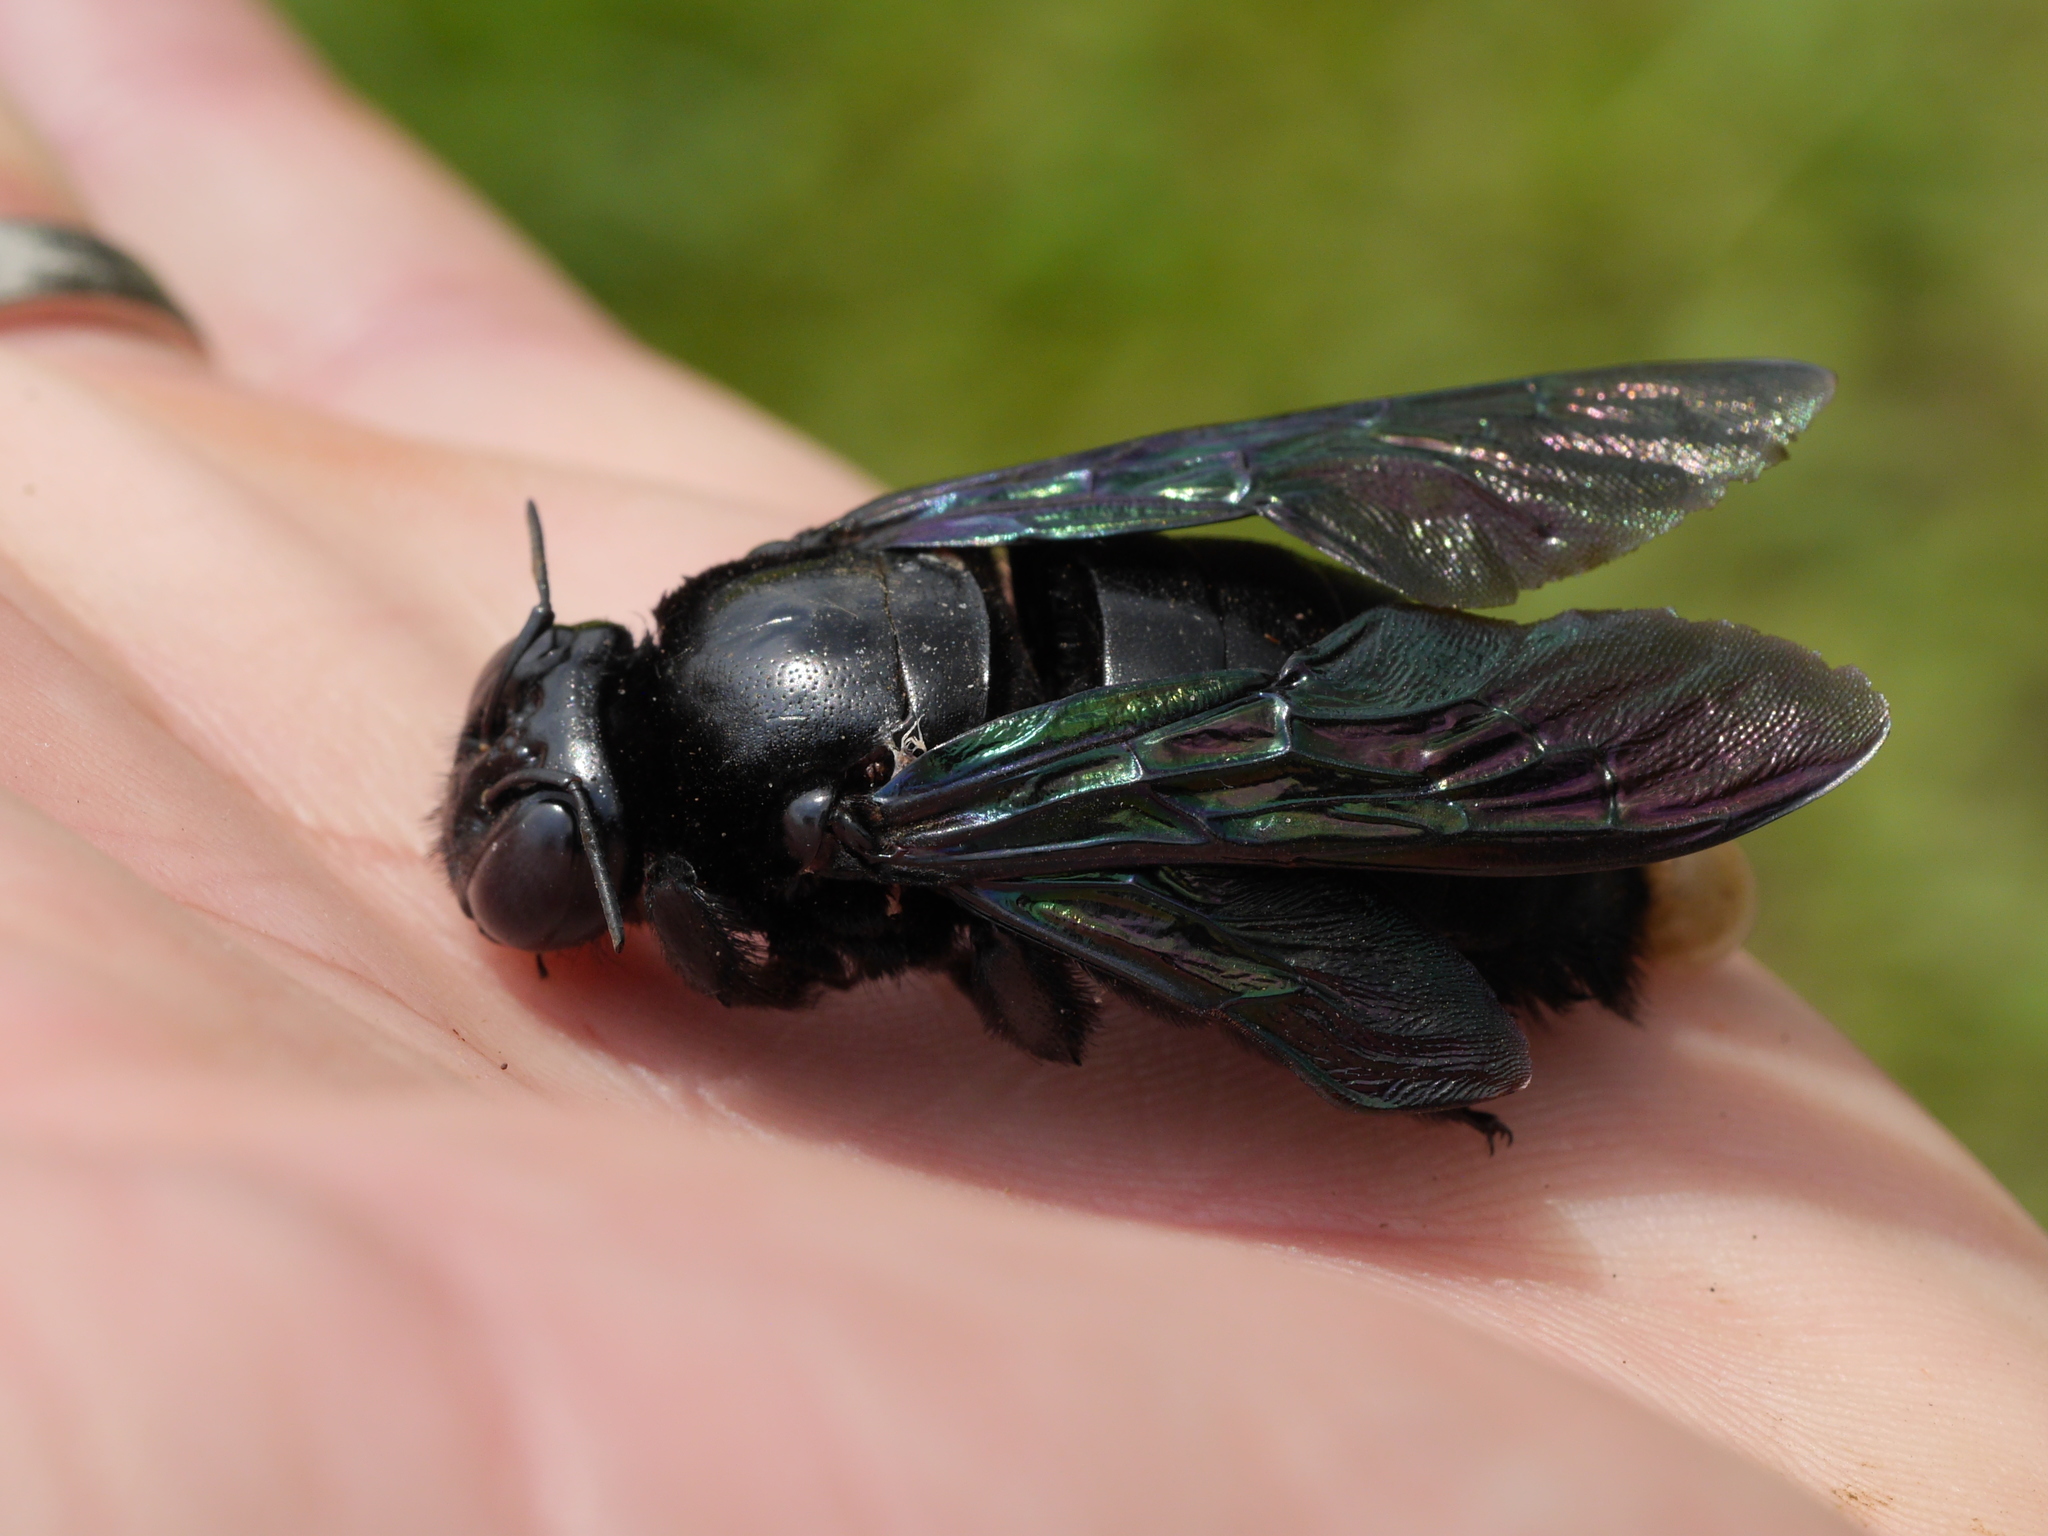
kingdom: Animalia
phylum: Arthropoda
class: Insecta
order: Hymenoptera
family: Apidae
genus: Xylocopa
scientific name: Xylocopa latipes
